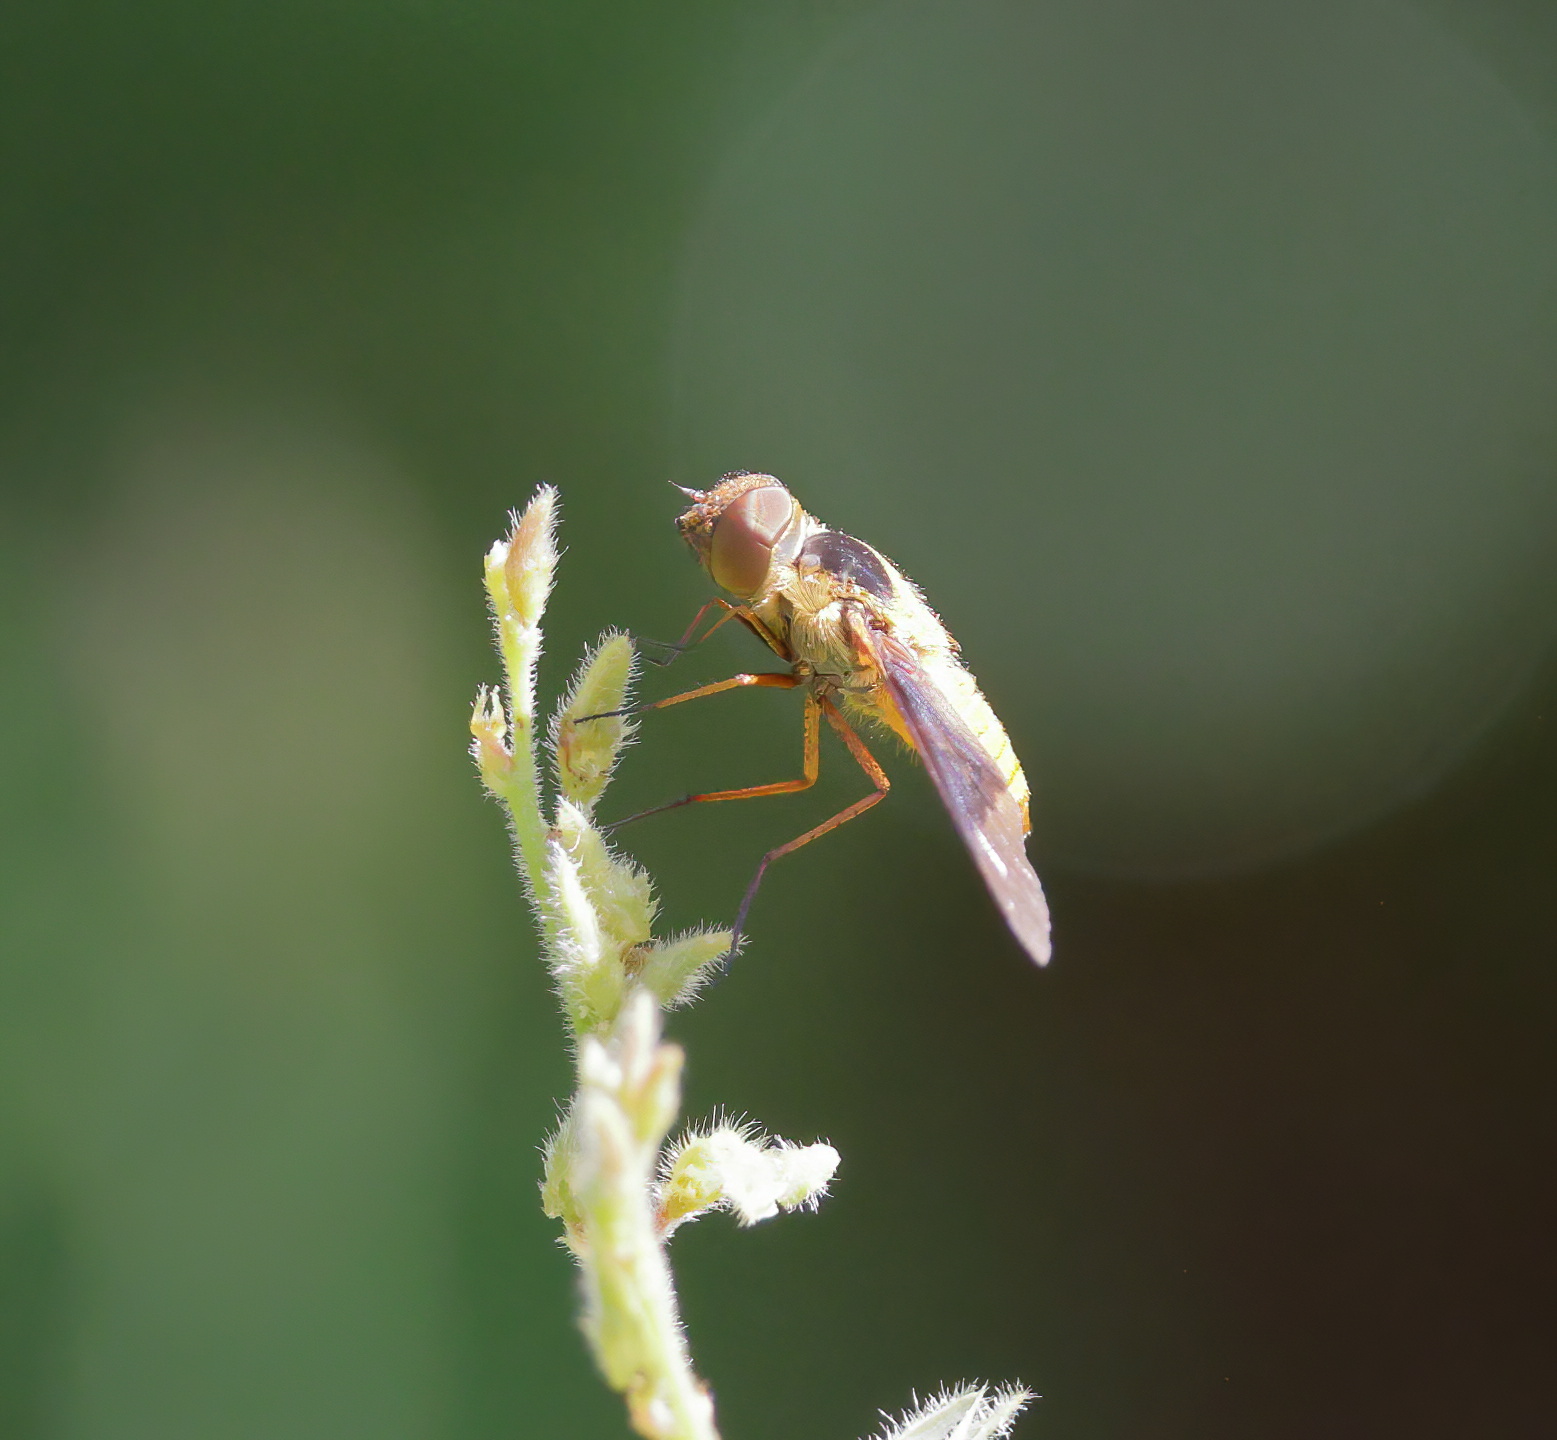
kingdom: Animalia
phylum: Arthropoda
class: Insecta
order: Diptera
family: Bombyliidae
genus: Chrysanthrax
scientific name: Chrysanthrax cypris
